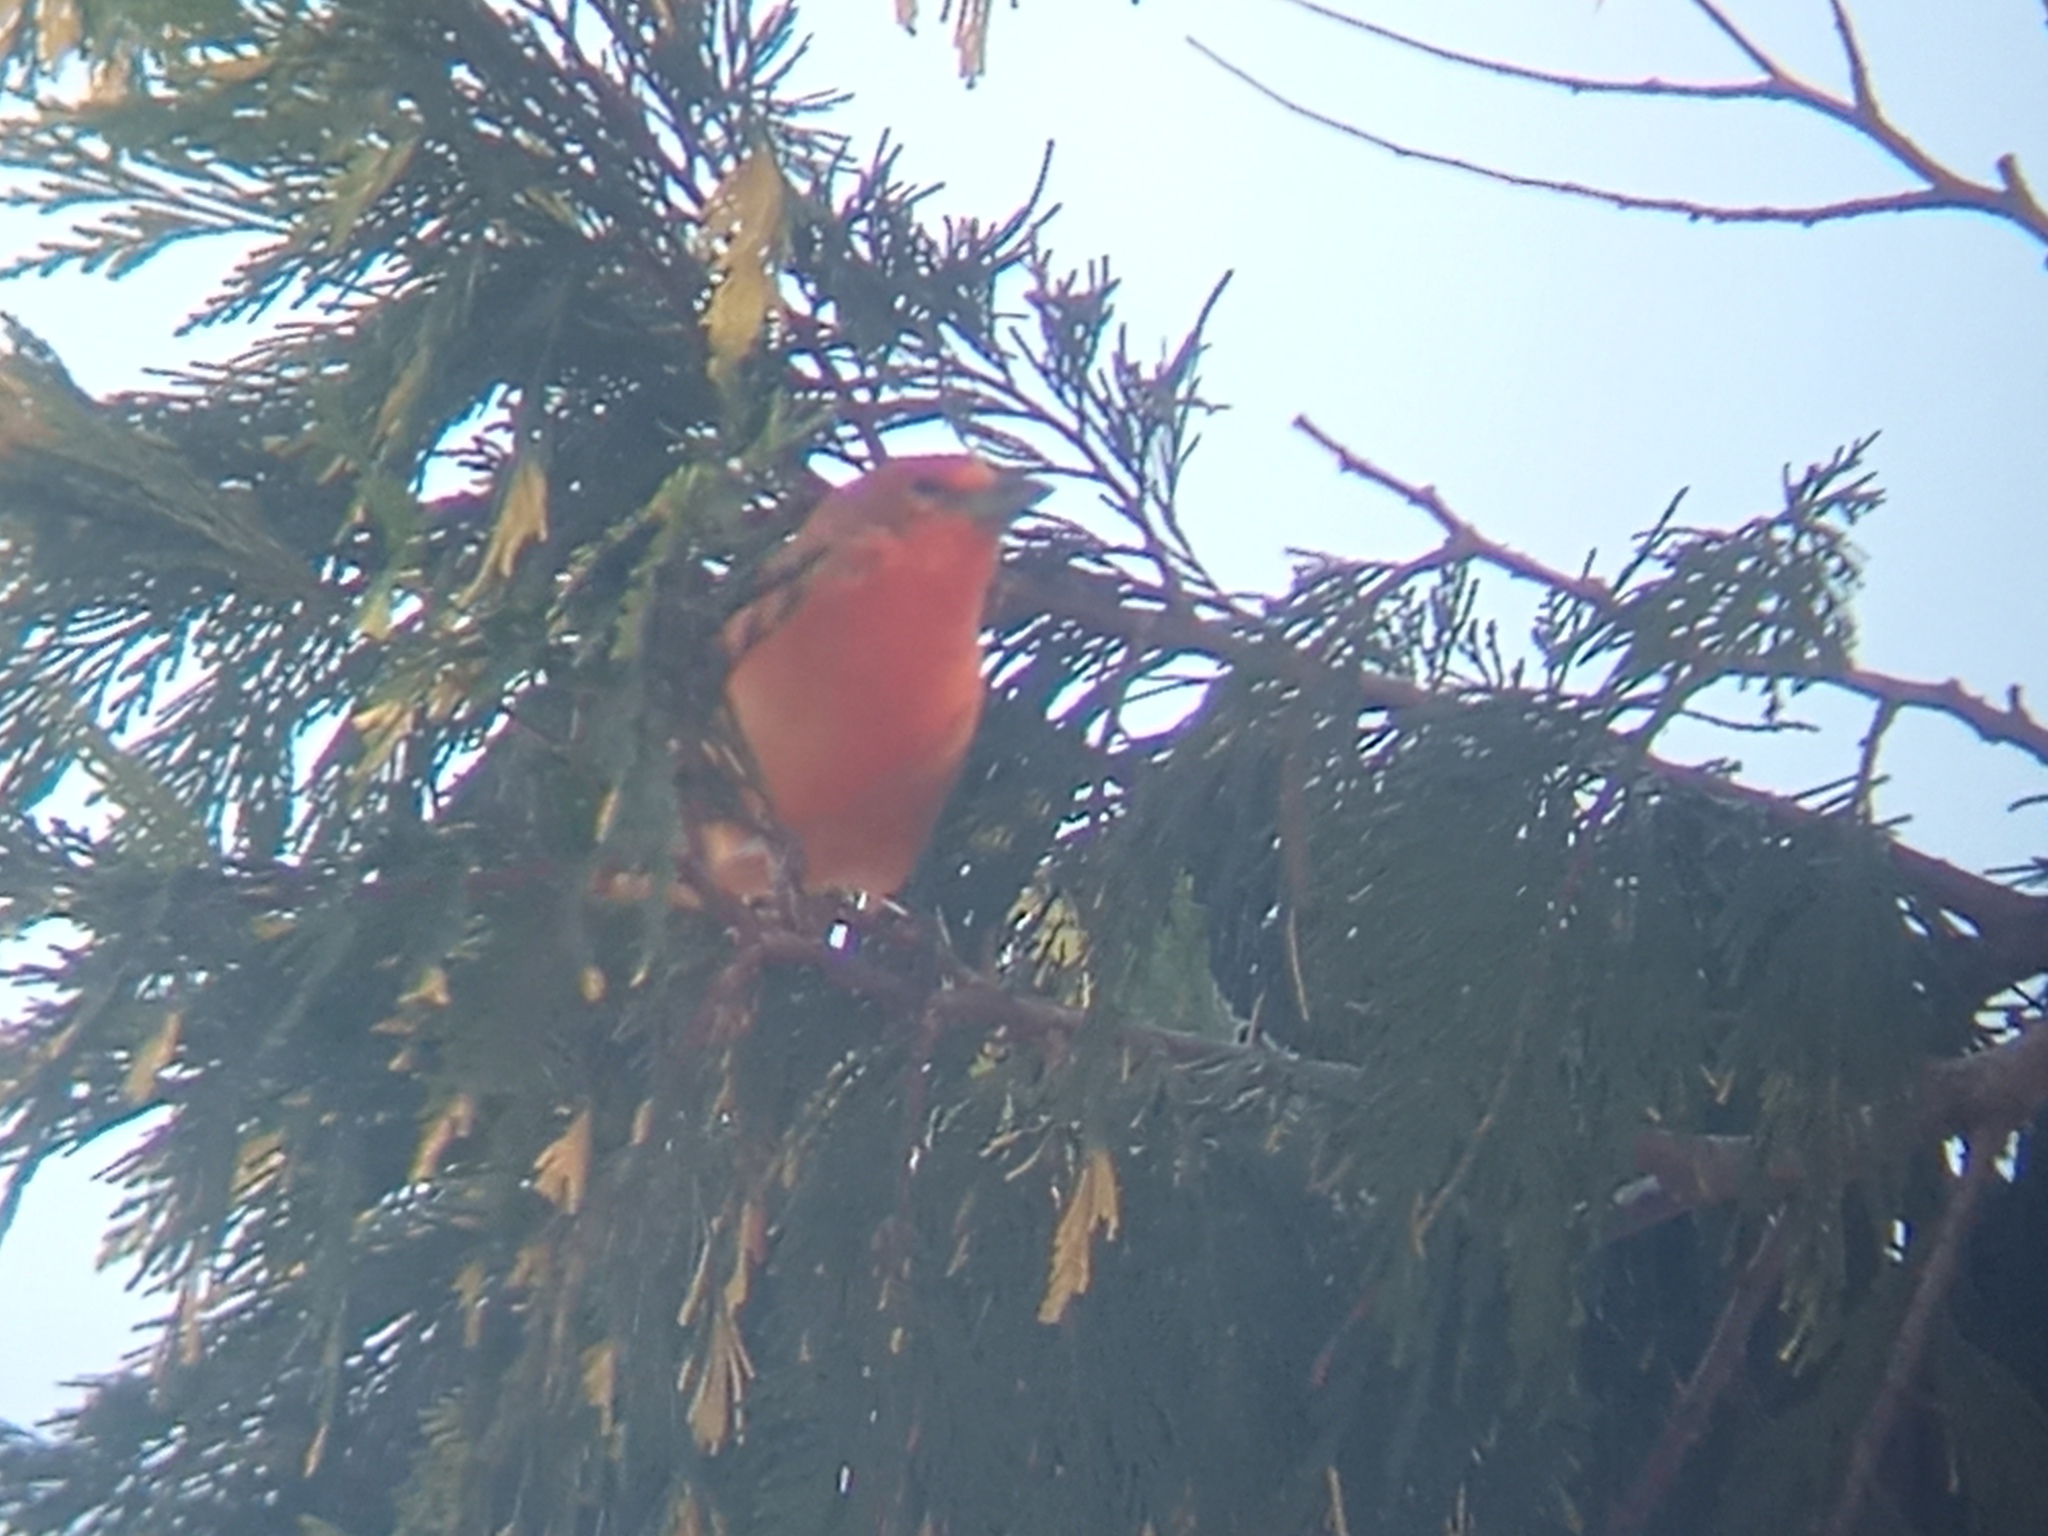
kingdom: Animalia
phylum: Chordata
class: Aves
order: Passeriformes
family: Cardinalidae
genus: Piranga
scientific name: Piranga flava
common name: Red tanager
